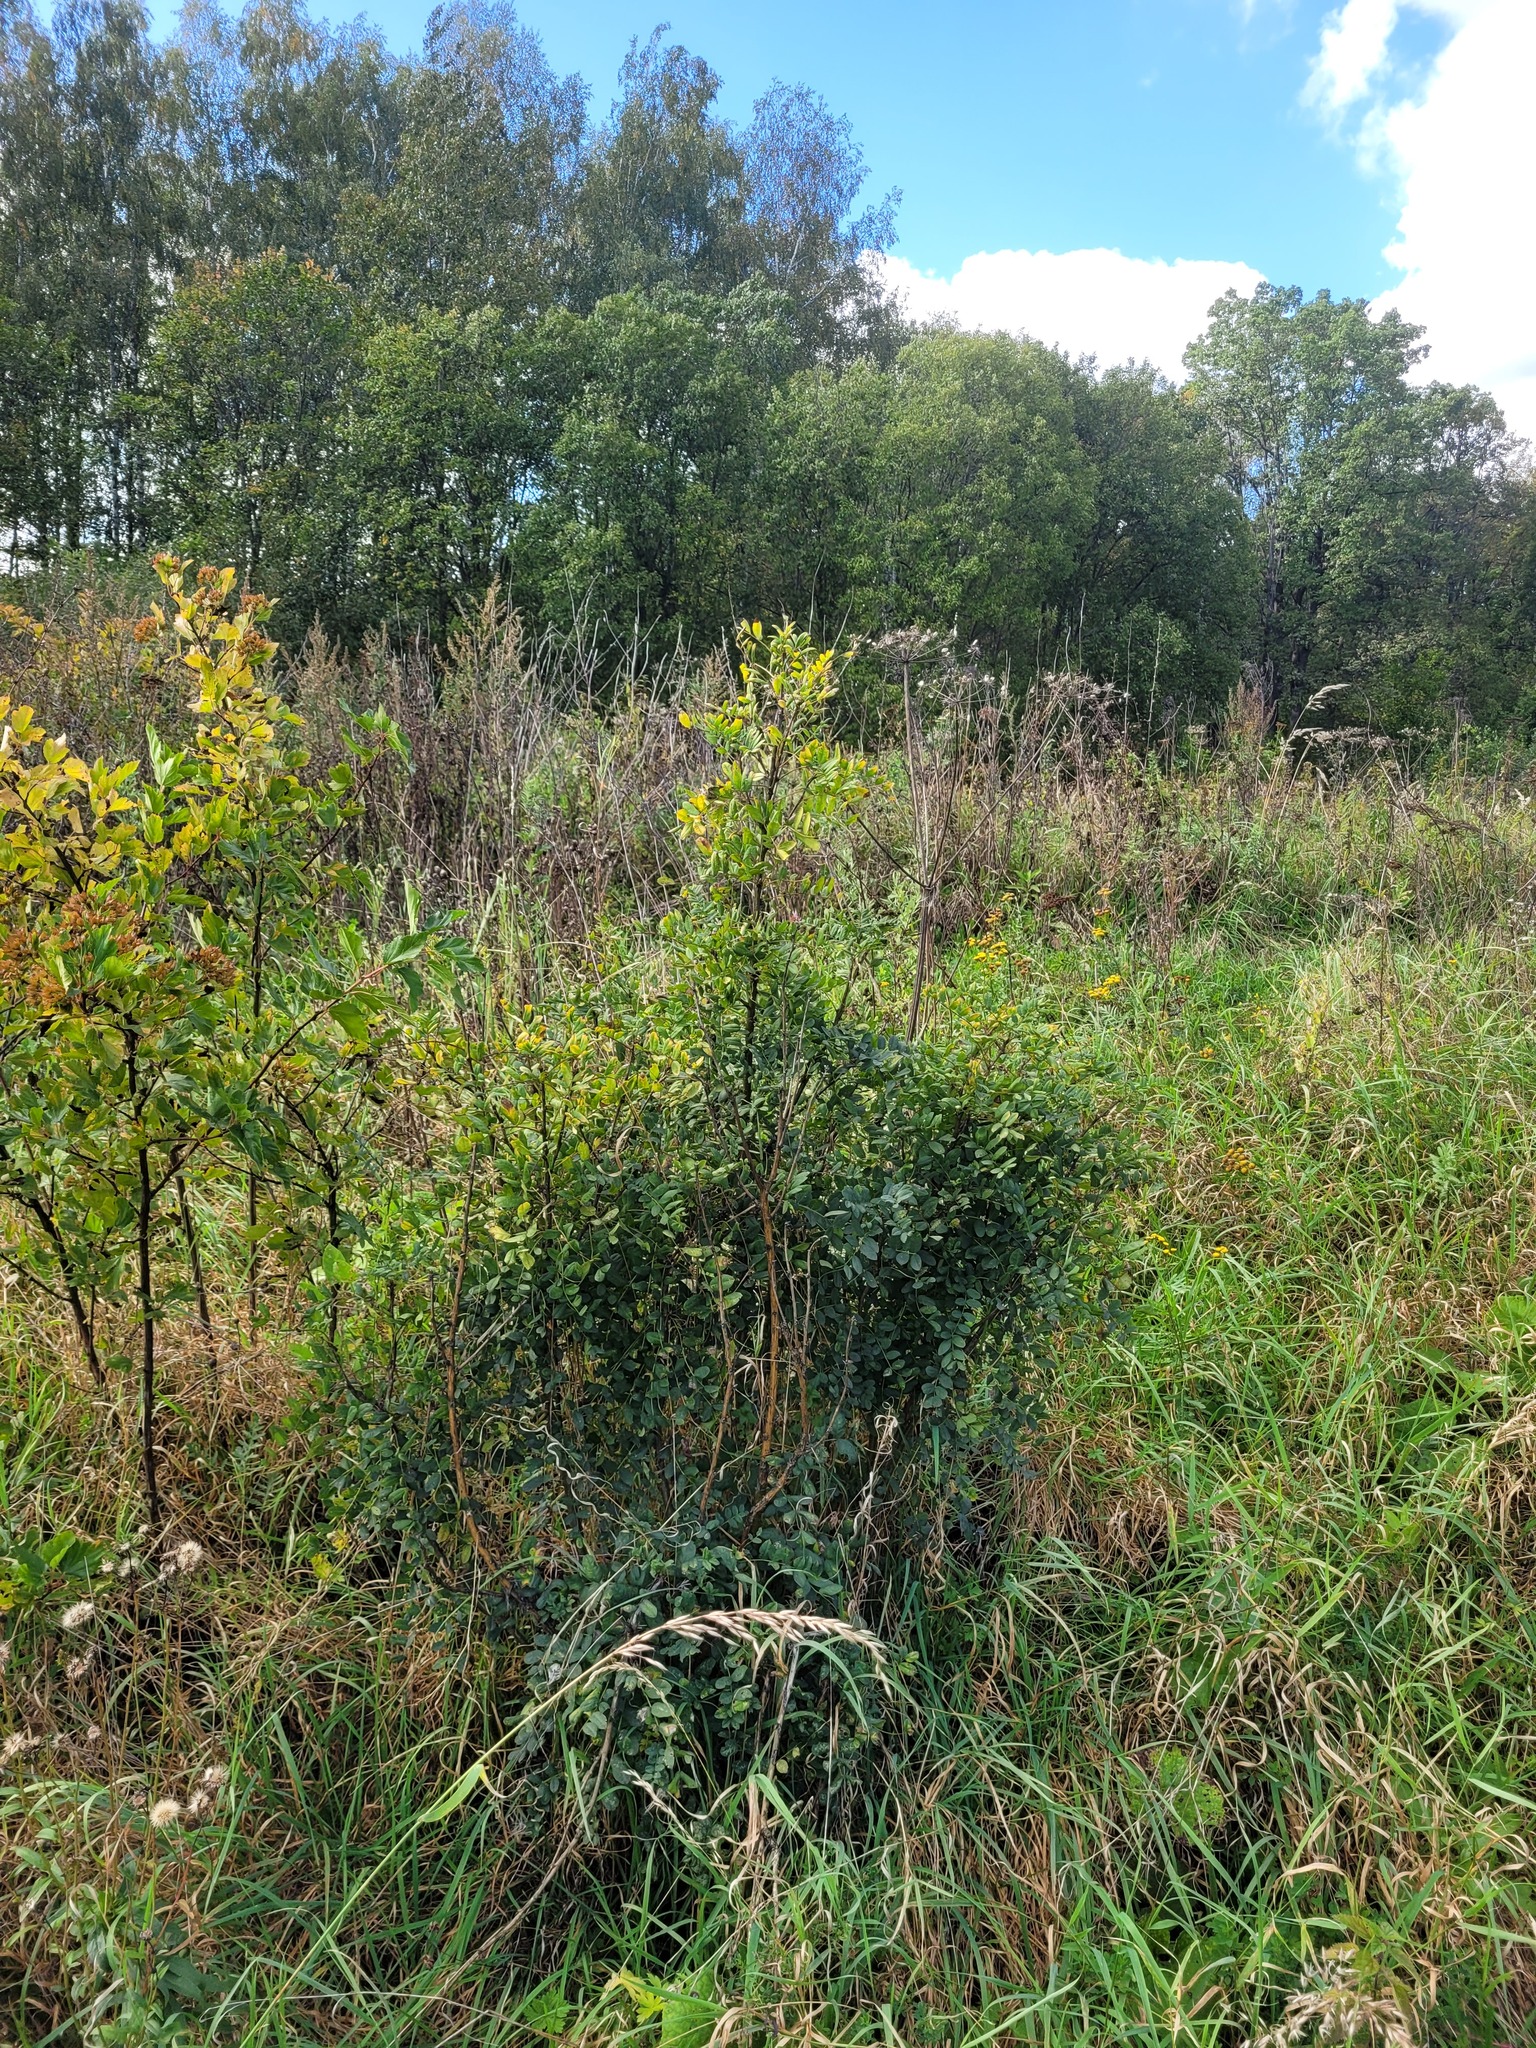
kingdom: Plantae
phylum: Tracheophyta
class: Magnoliopsida
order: Fabales
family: Fabaceae
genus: Caragana
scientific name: Caragana arborescens
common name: Siberian peashrub
